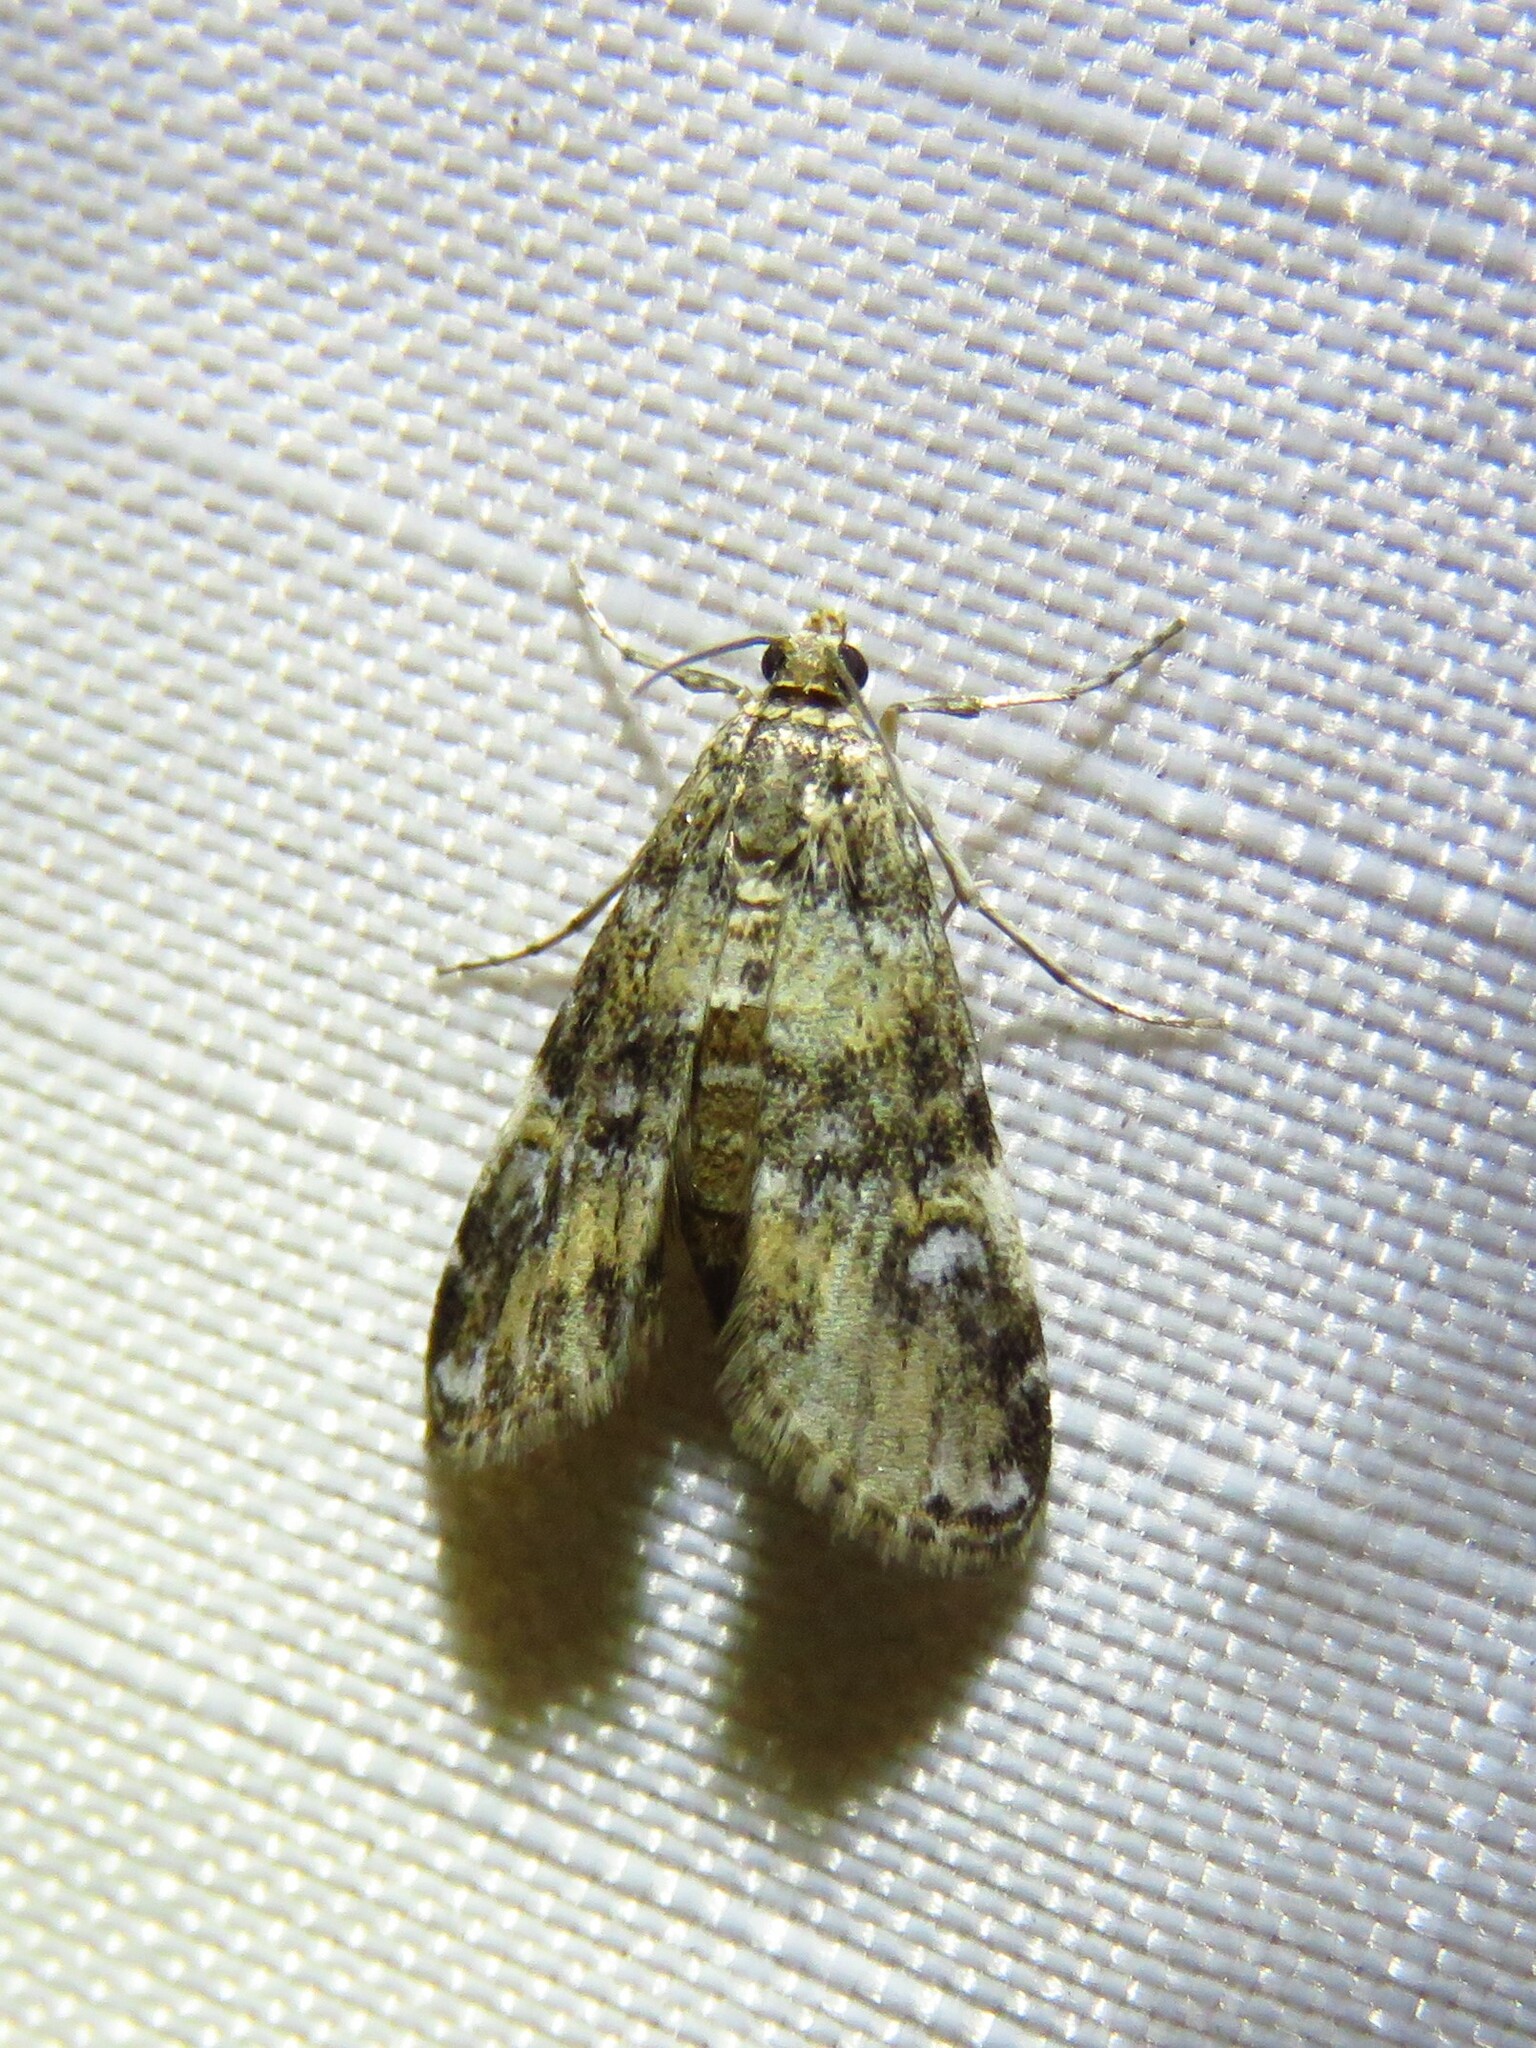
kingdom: Animalia
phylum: Arthropoda
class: Insecta
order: Lepidoptera
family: Crambidae
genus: Elophila
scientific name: Elophila obliteralis
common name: Waterlily leafcutter moth
